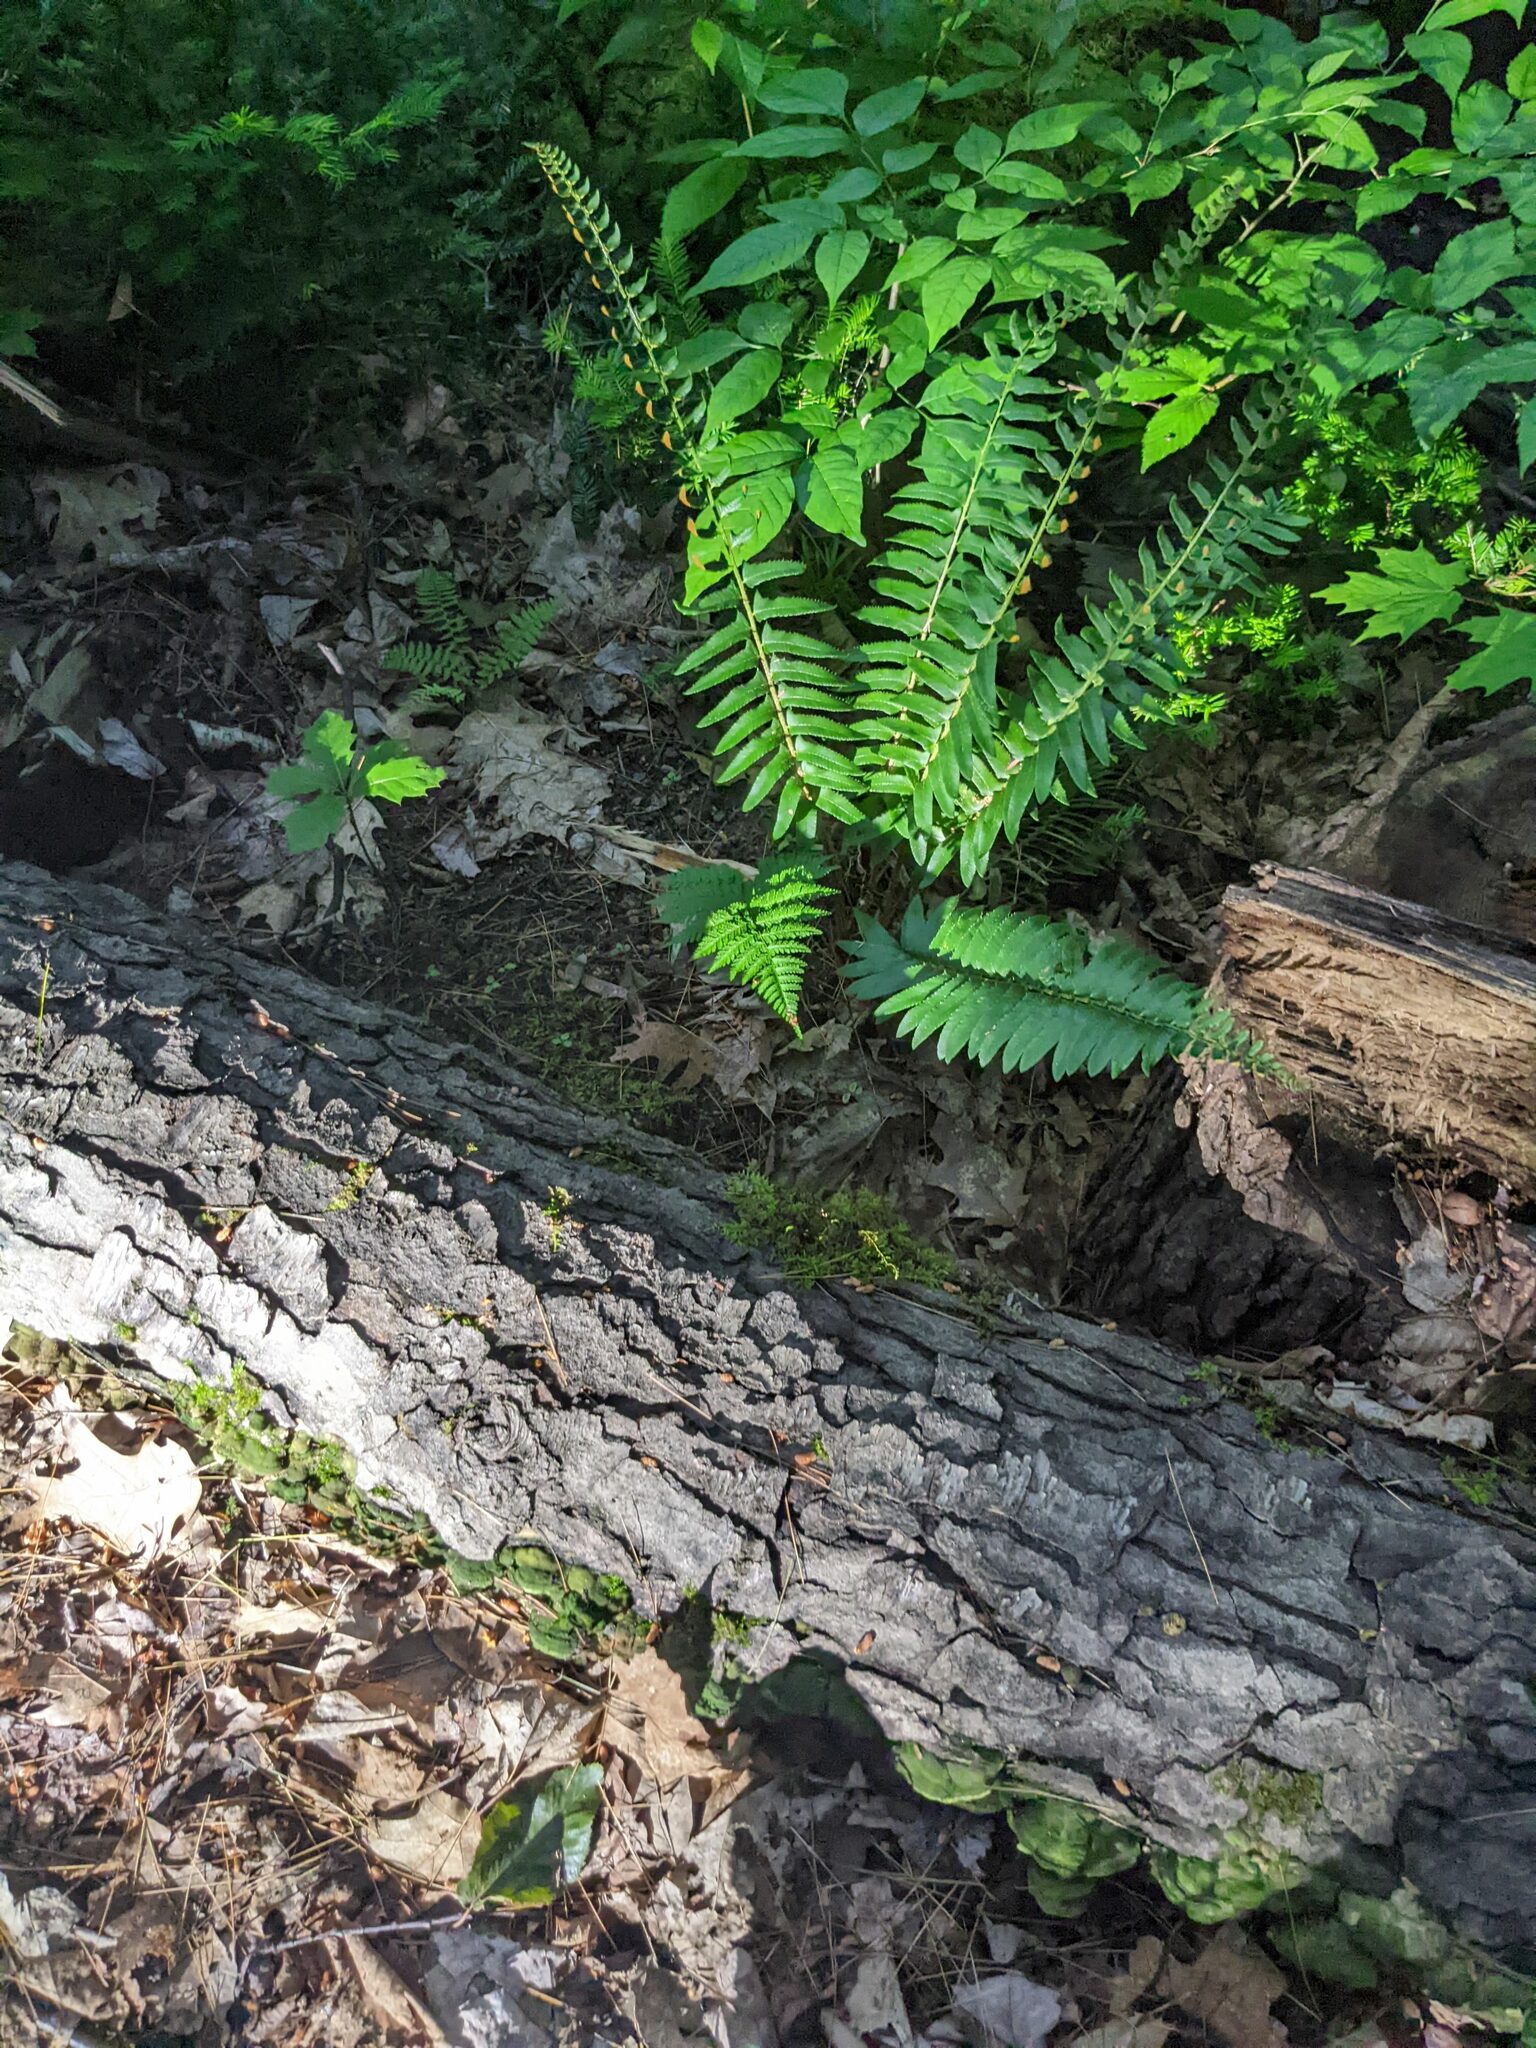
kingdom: Plantae
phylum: Tracheophyta
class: Polypodiopsida
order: Polypodiales
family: Dryopteridaceae
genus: Polystichum
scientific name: Polystichum acrostichoides
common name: Christmas fern
